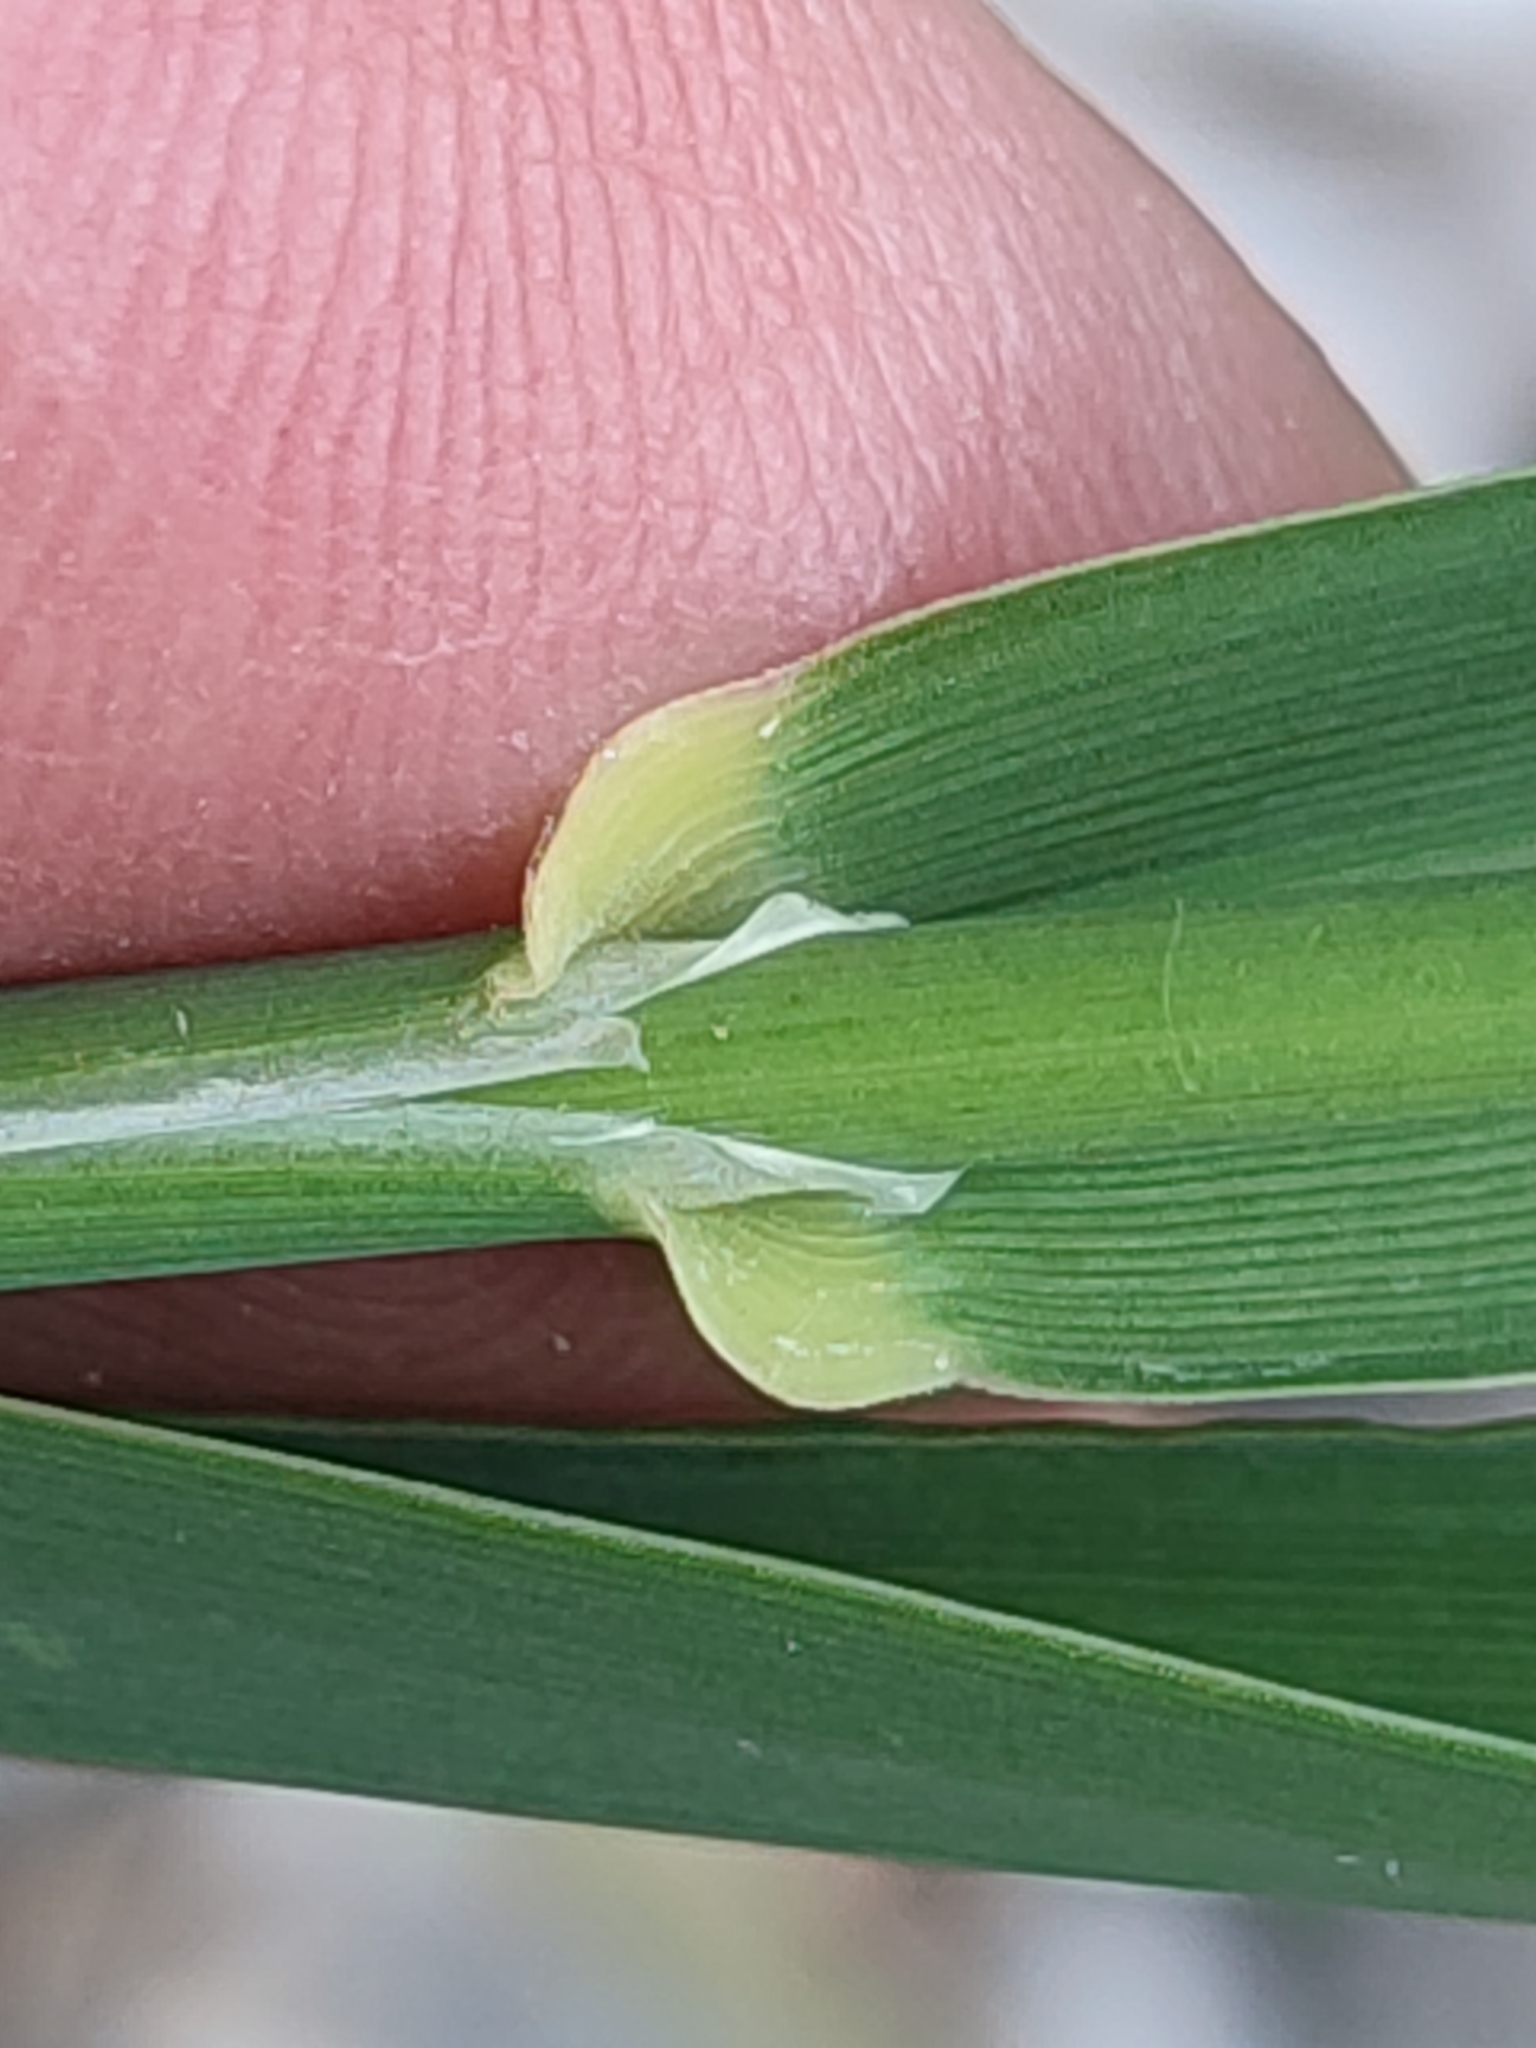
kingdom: Plantae
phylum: Tracheophyta
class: Liliopsida
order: Poales
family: Poaceae
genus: Phalaris
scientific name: Phalaris arundinacea
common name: Reed canary-grass
